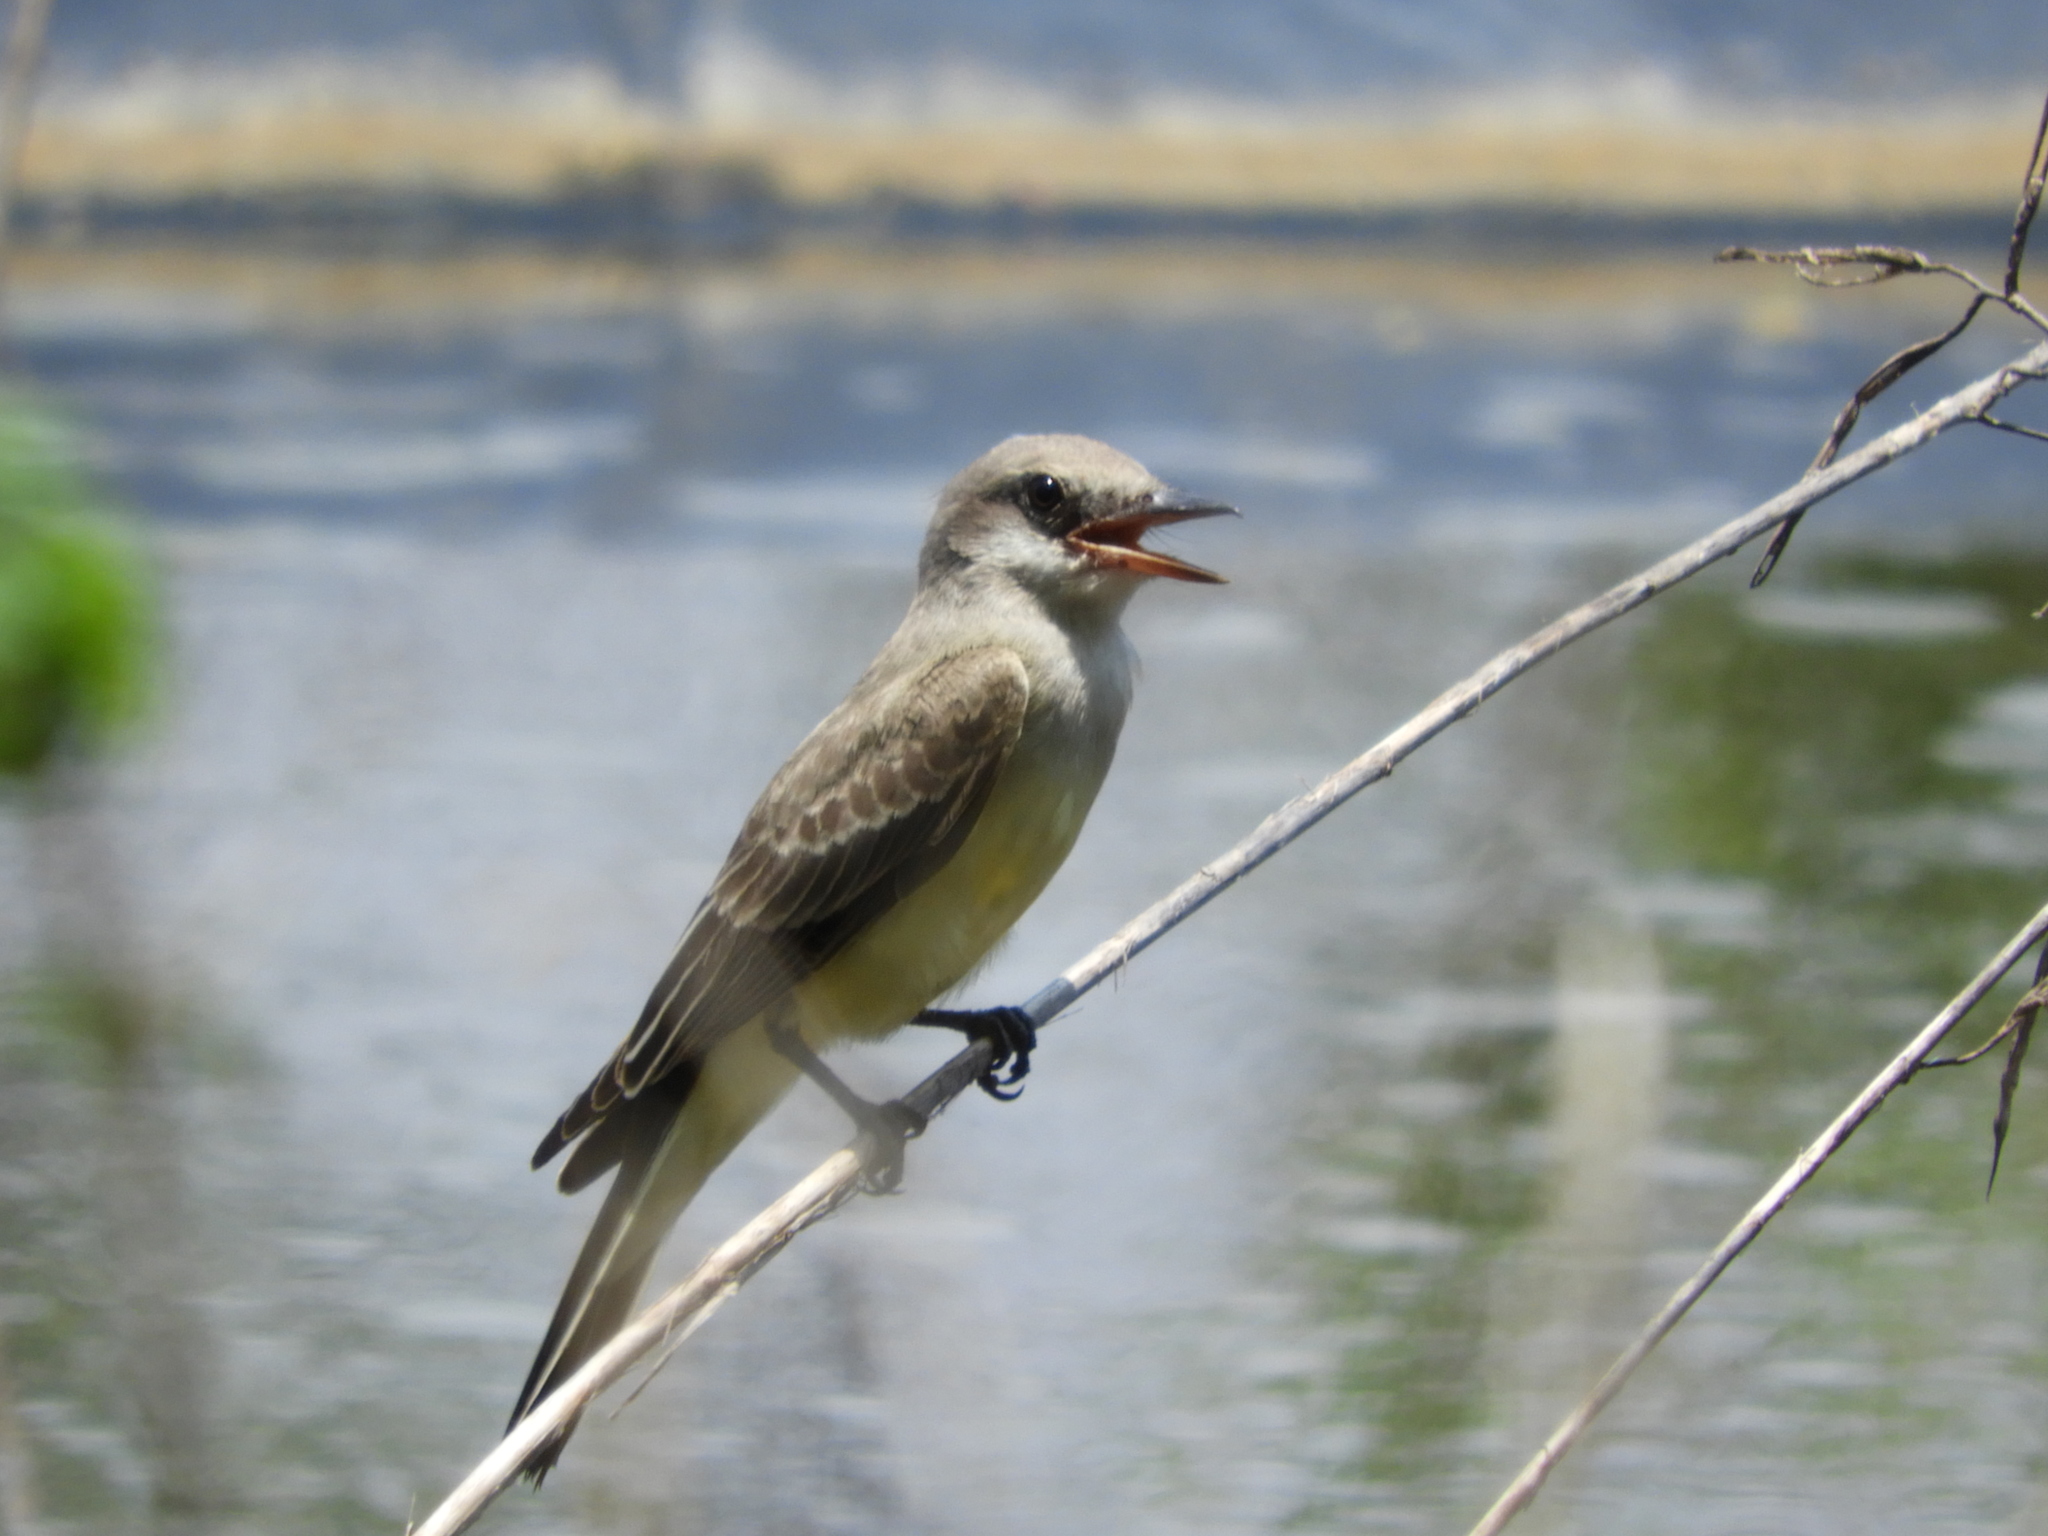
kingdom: Animalia
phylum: Chordata
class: Aves
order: Passeriformes
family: Tyrannidae
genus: Tyrannus
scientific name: Tyrannus melancholicus
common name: Tropical kingbird
